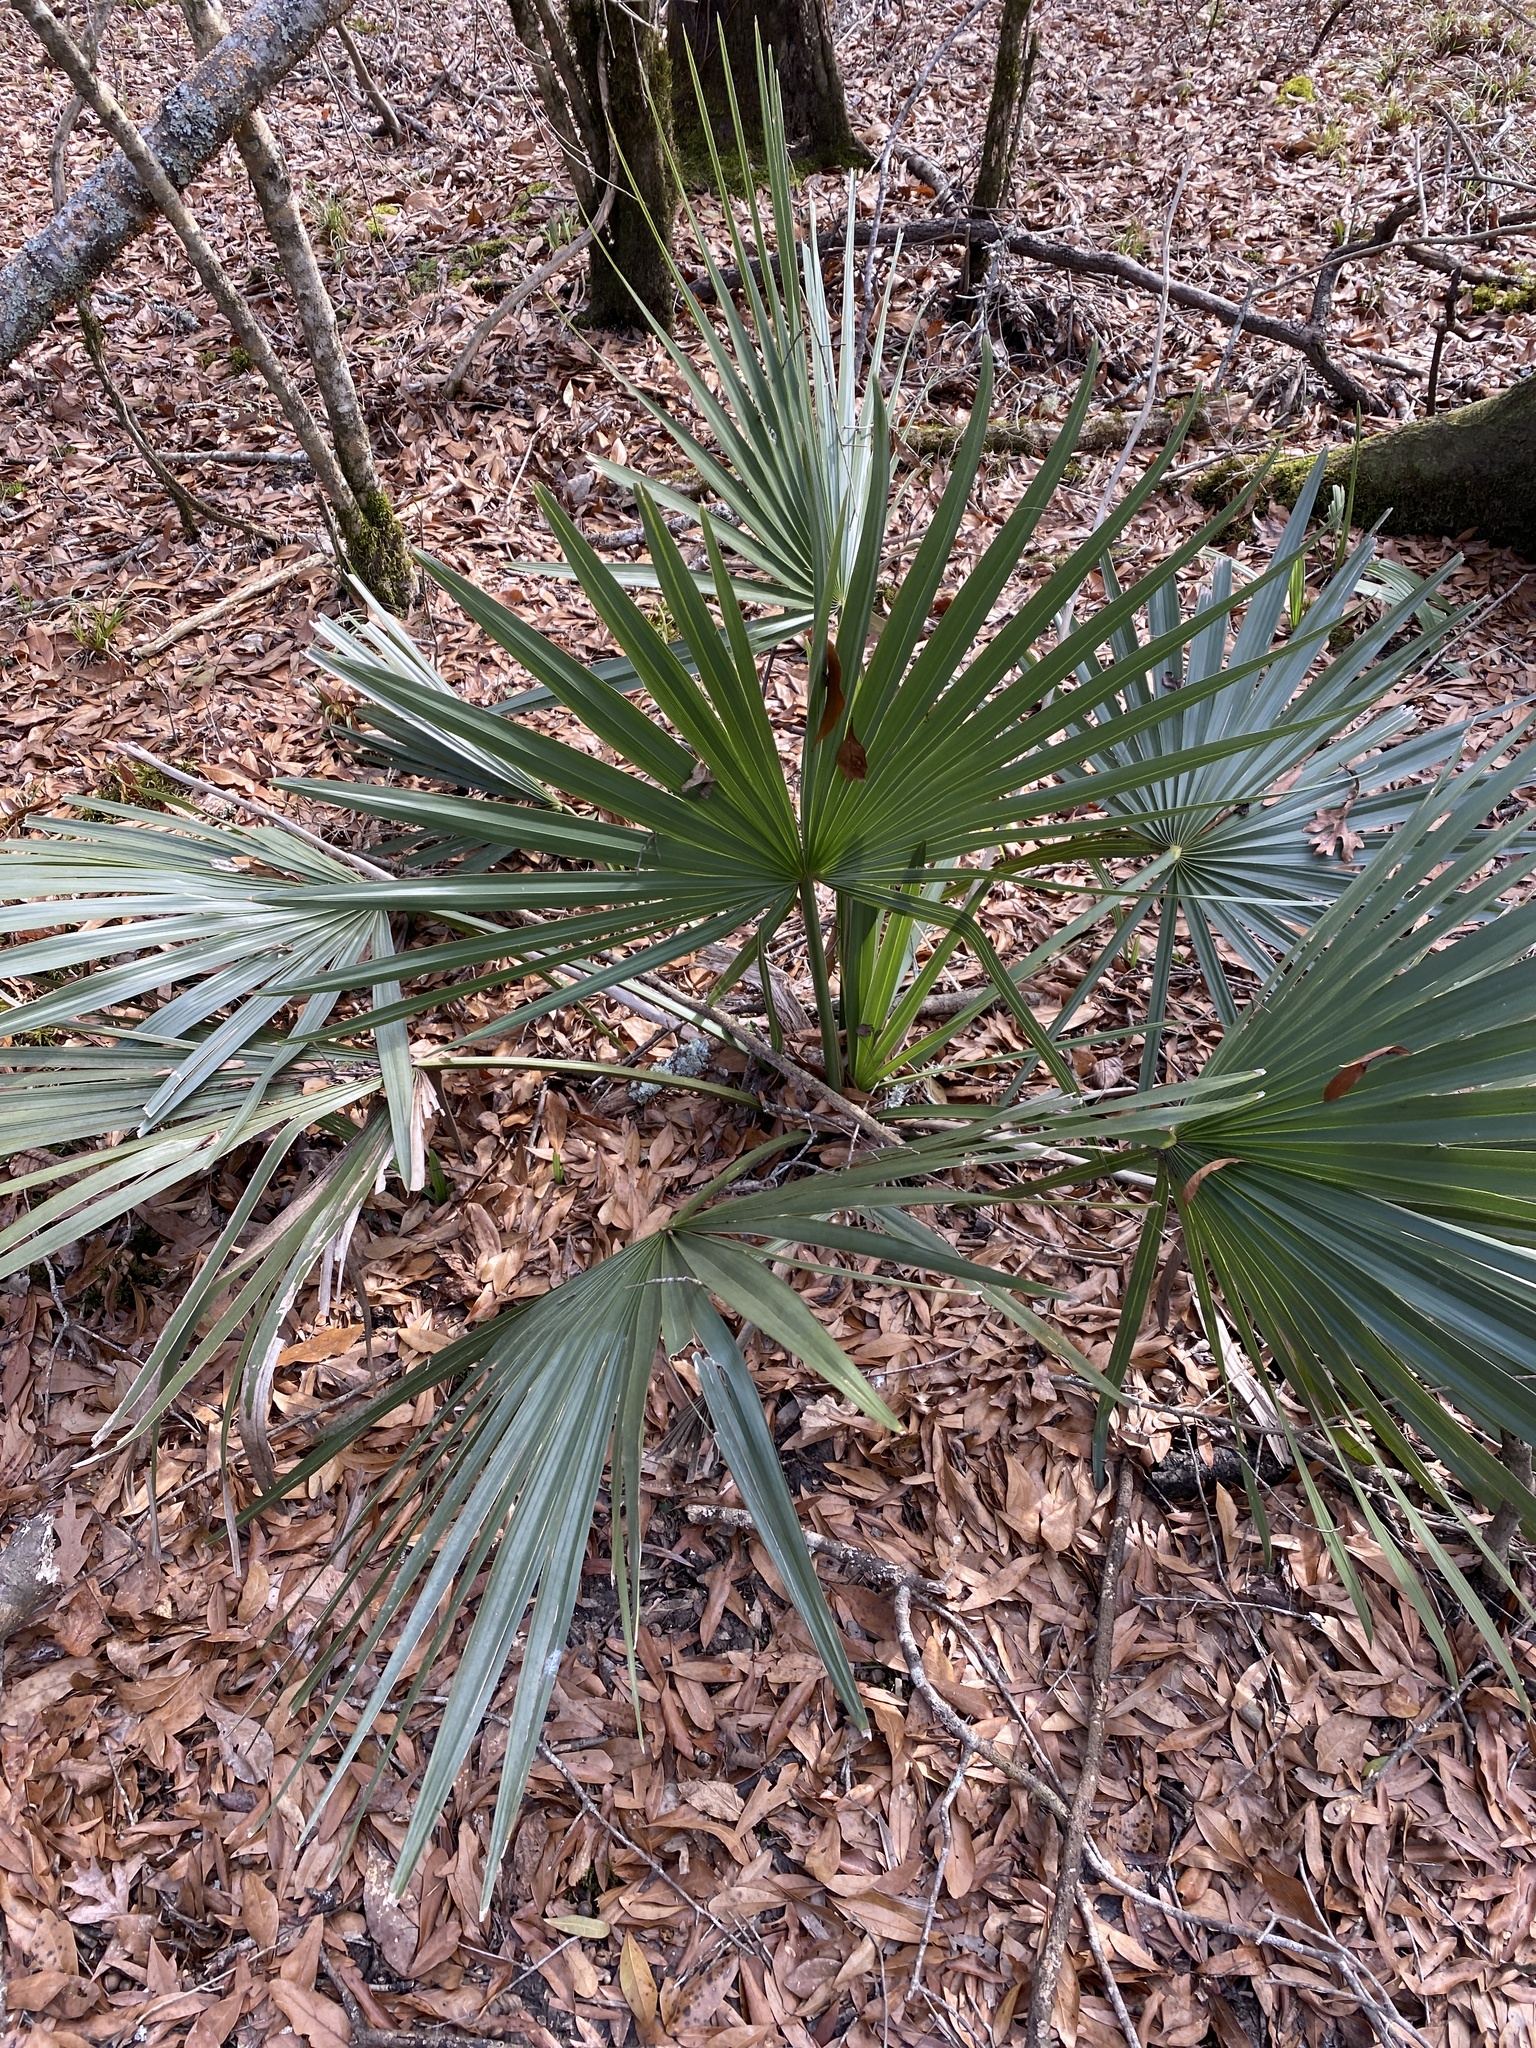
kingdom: Plantae
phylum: Tracheophyta
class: Liliopsida
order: Arecales
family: Arecaceae
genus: Sabal
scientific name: Sabal minor
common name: Dwarf palmetto
